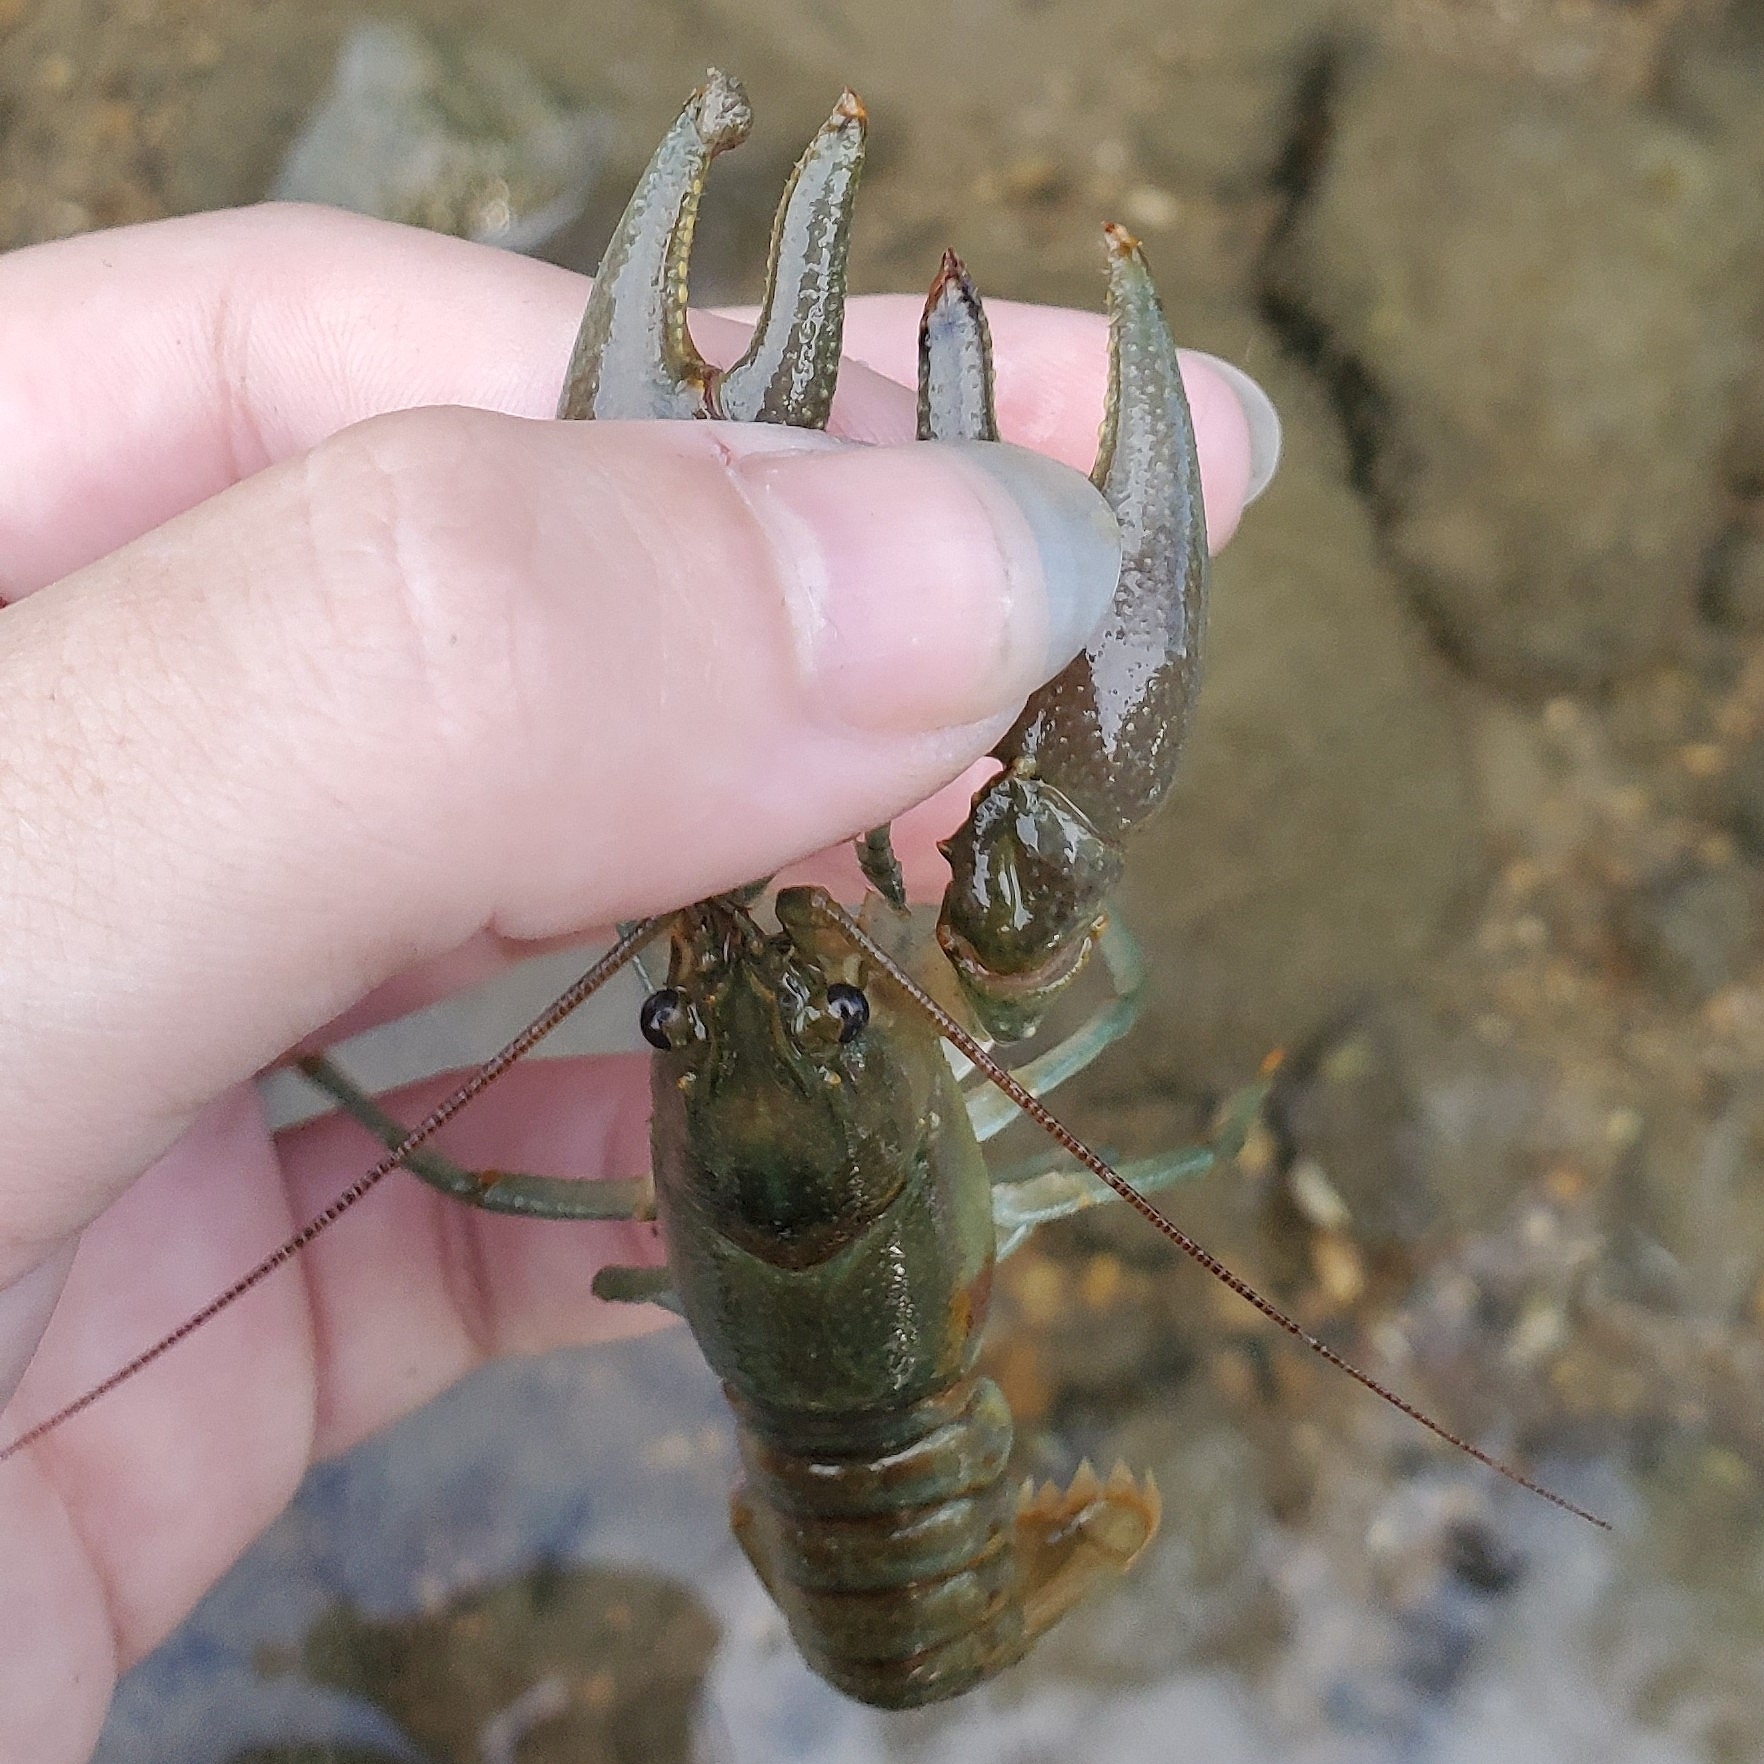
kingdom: Animalia
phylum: Arthropoda
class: Malacostraca
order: Decapoda
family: Cambaridae
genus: Faxonius
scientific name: Faxonius rusticus
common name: Rusty crayfish
